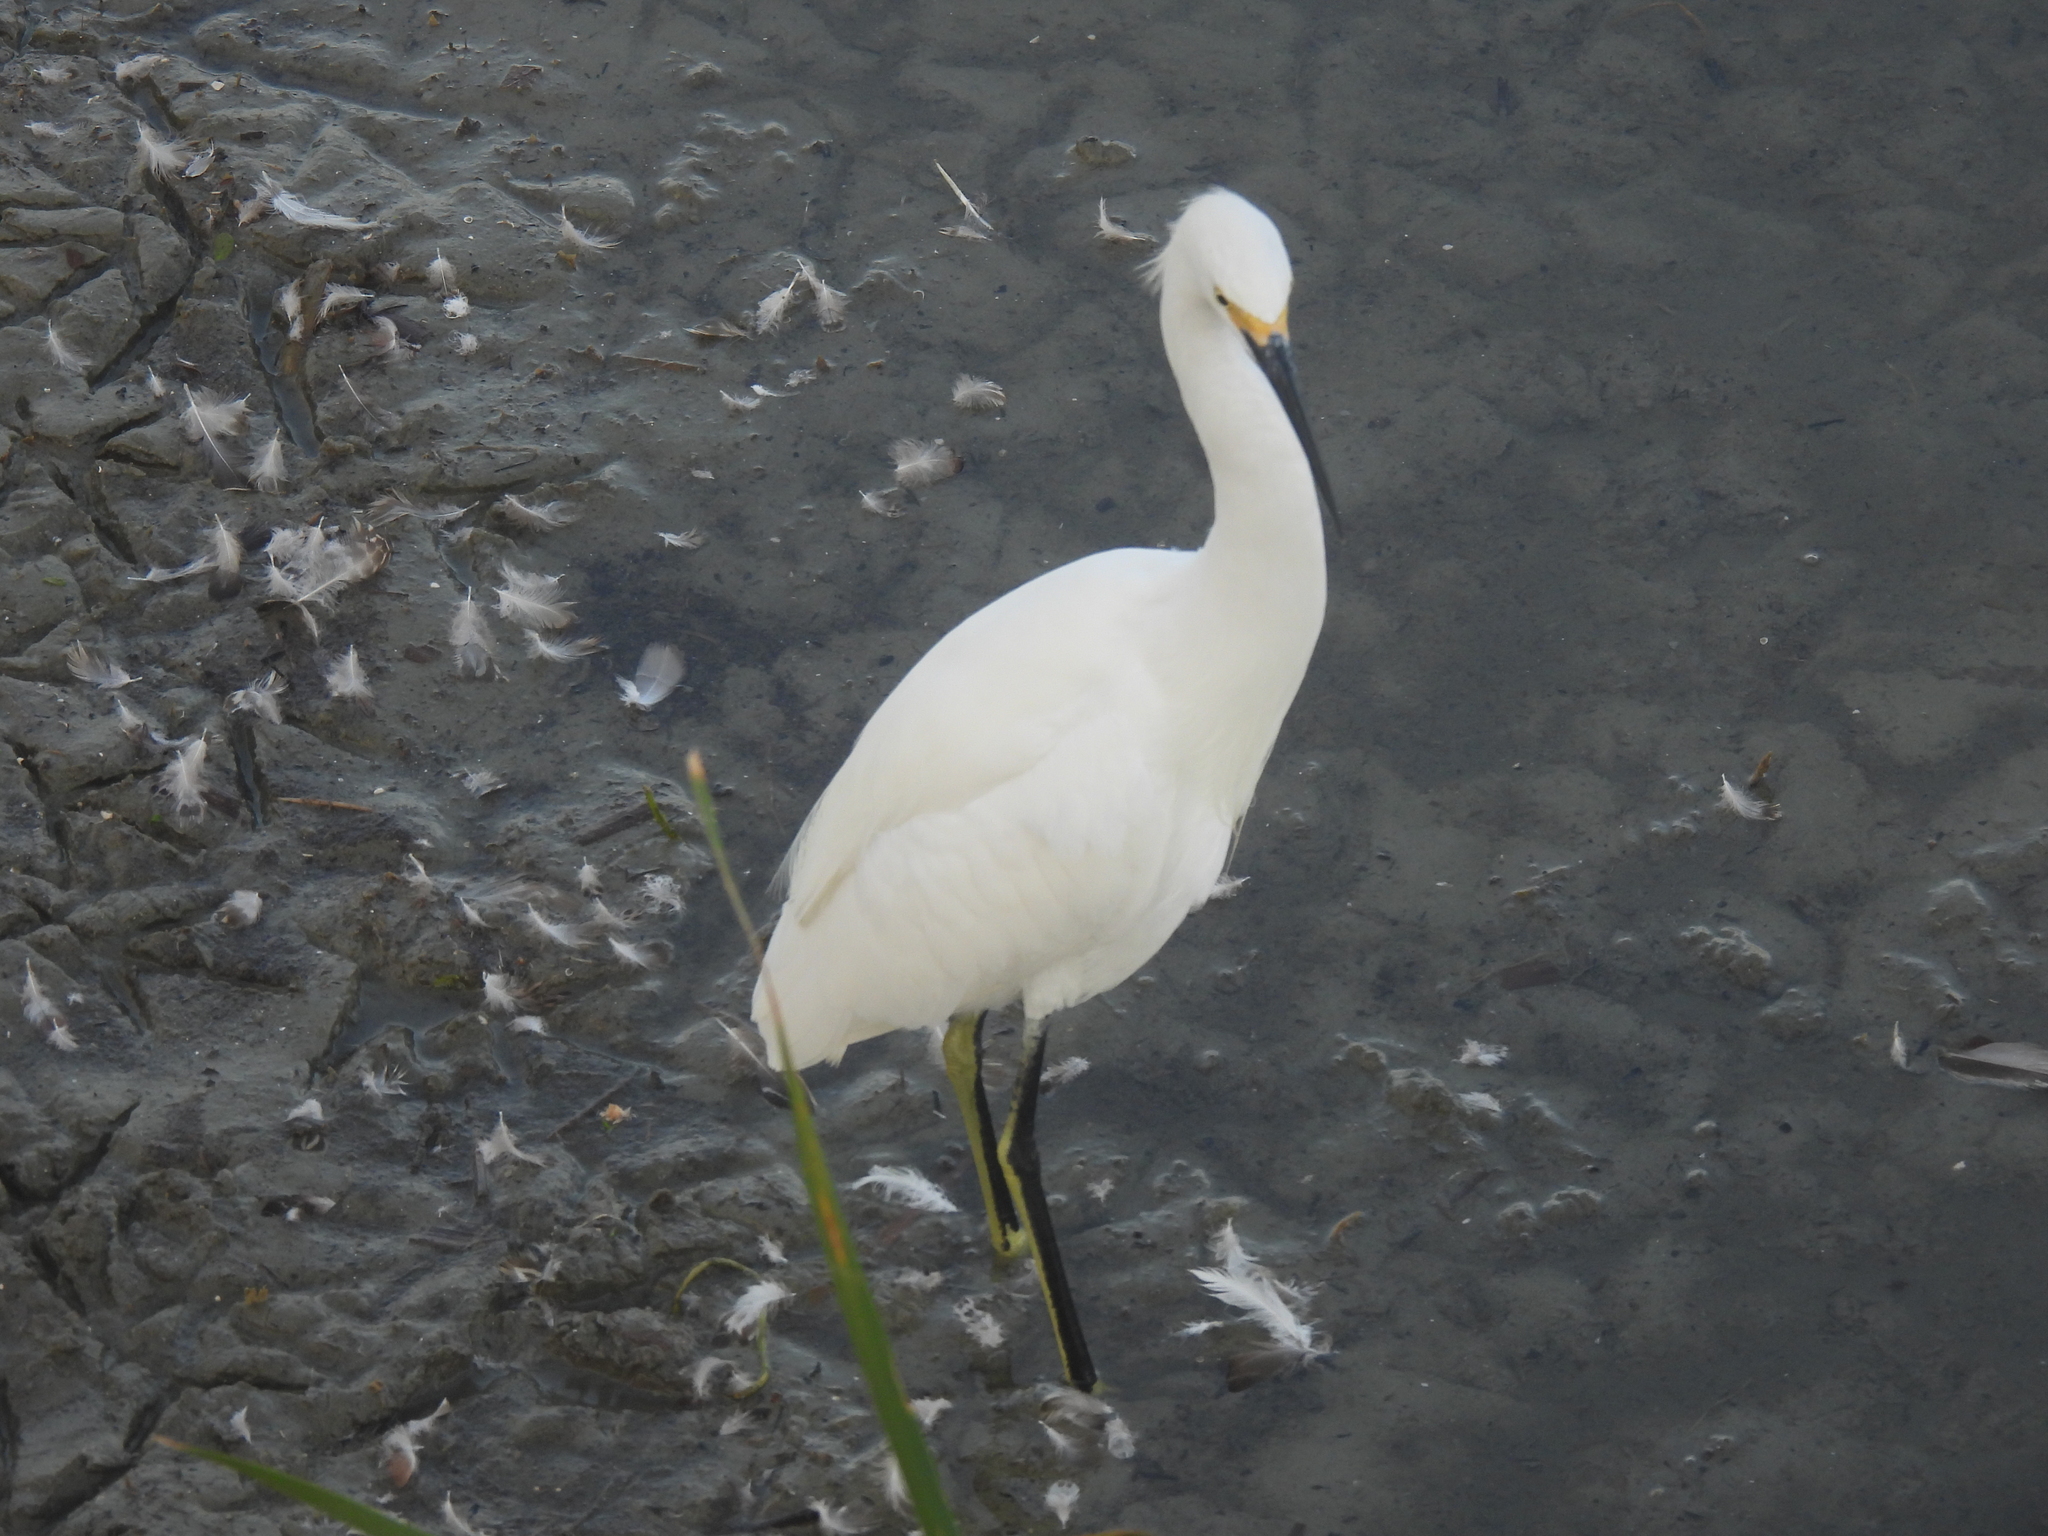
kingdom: Animalia
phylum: Chordata
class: Aves
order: Pelecaniformes
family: Ardeidae
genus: Egretta
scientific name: Egretta thula
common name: Snowy egret
